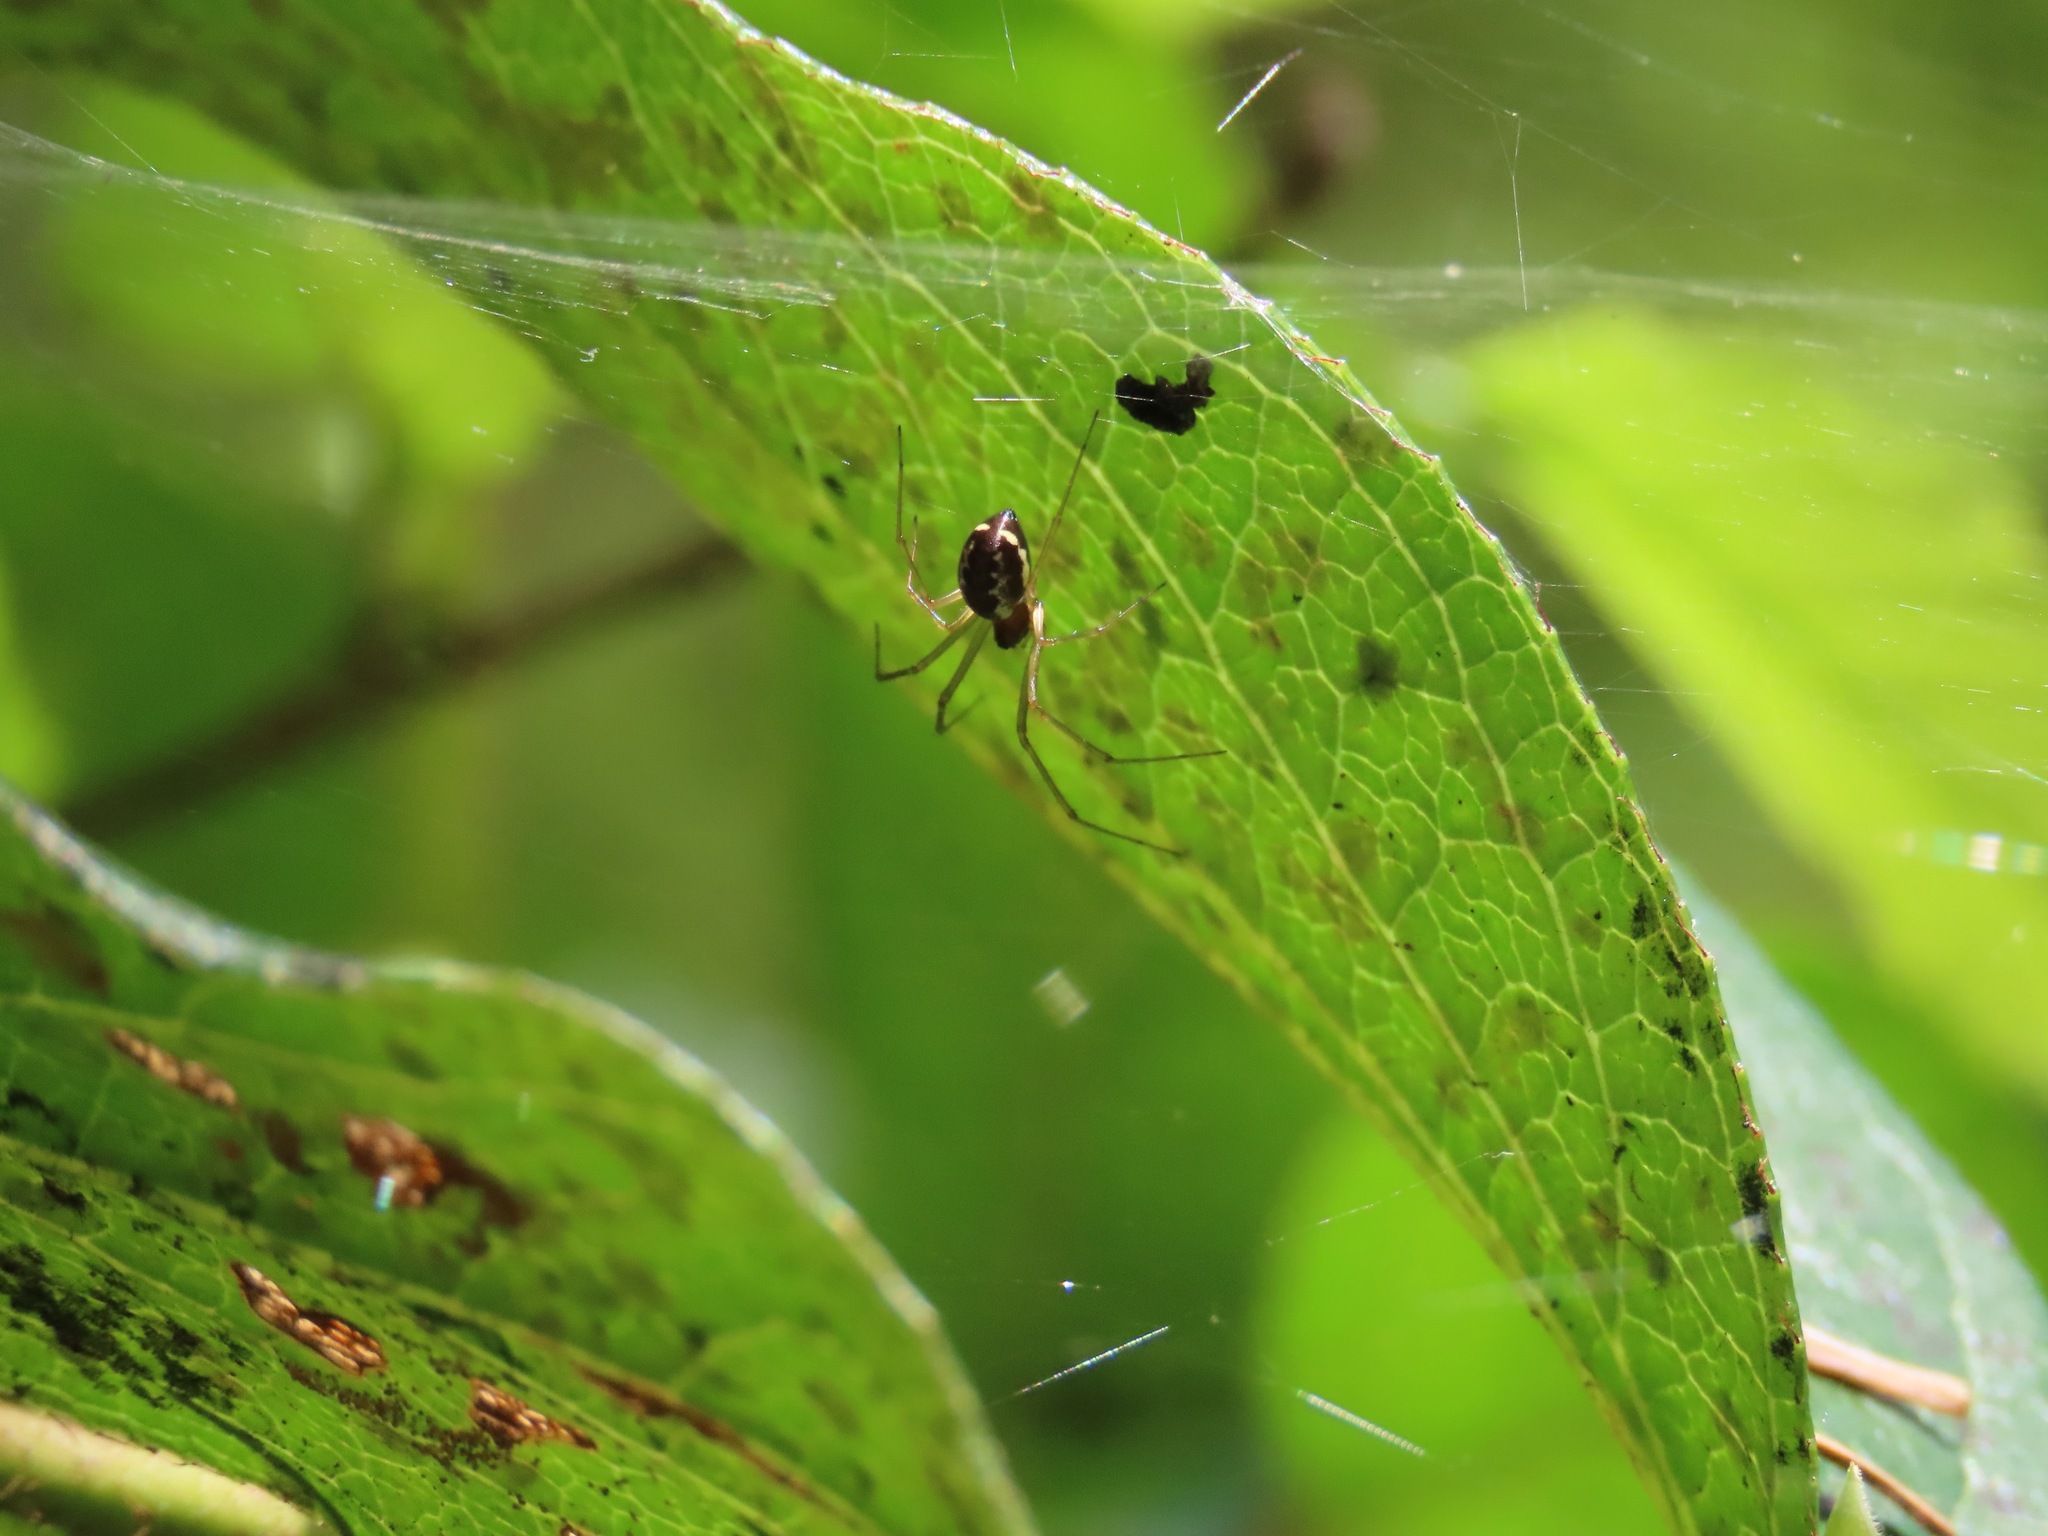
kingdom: Animalia
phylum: Arthropoda
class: Arachnida
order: Araneae
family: Linyphiidae
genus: Microlinyphia
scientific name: Microlinyphia dana
